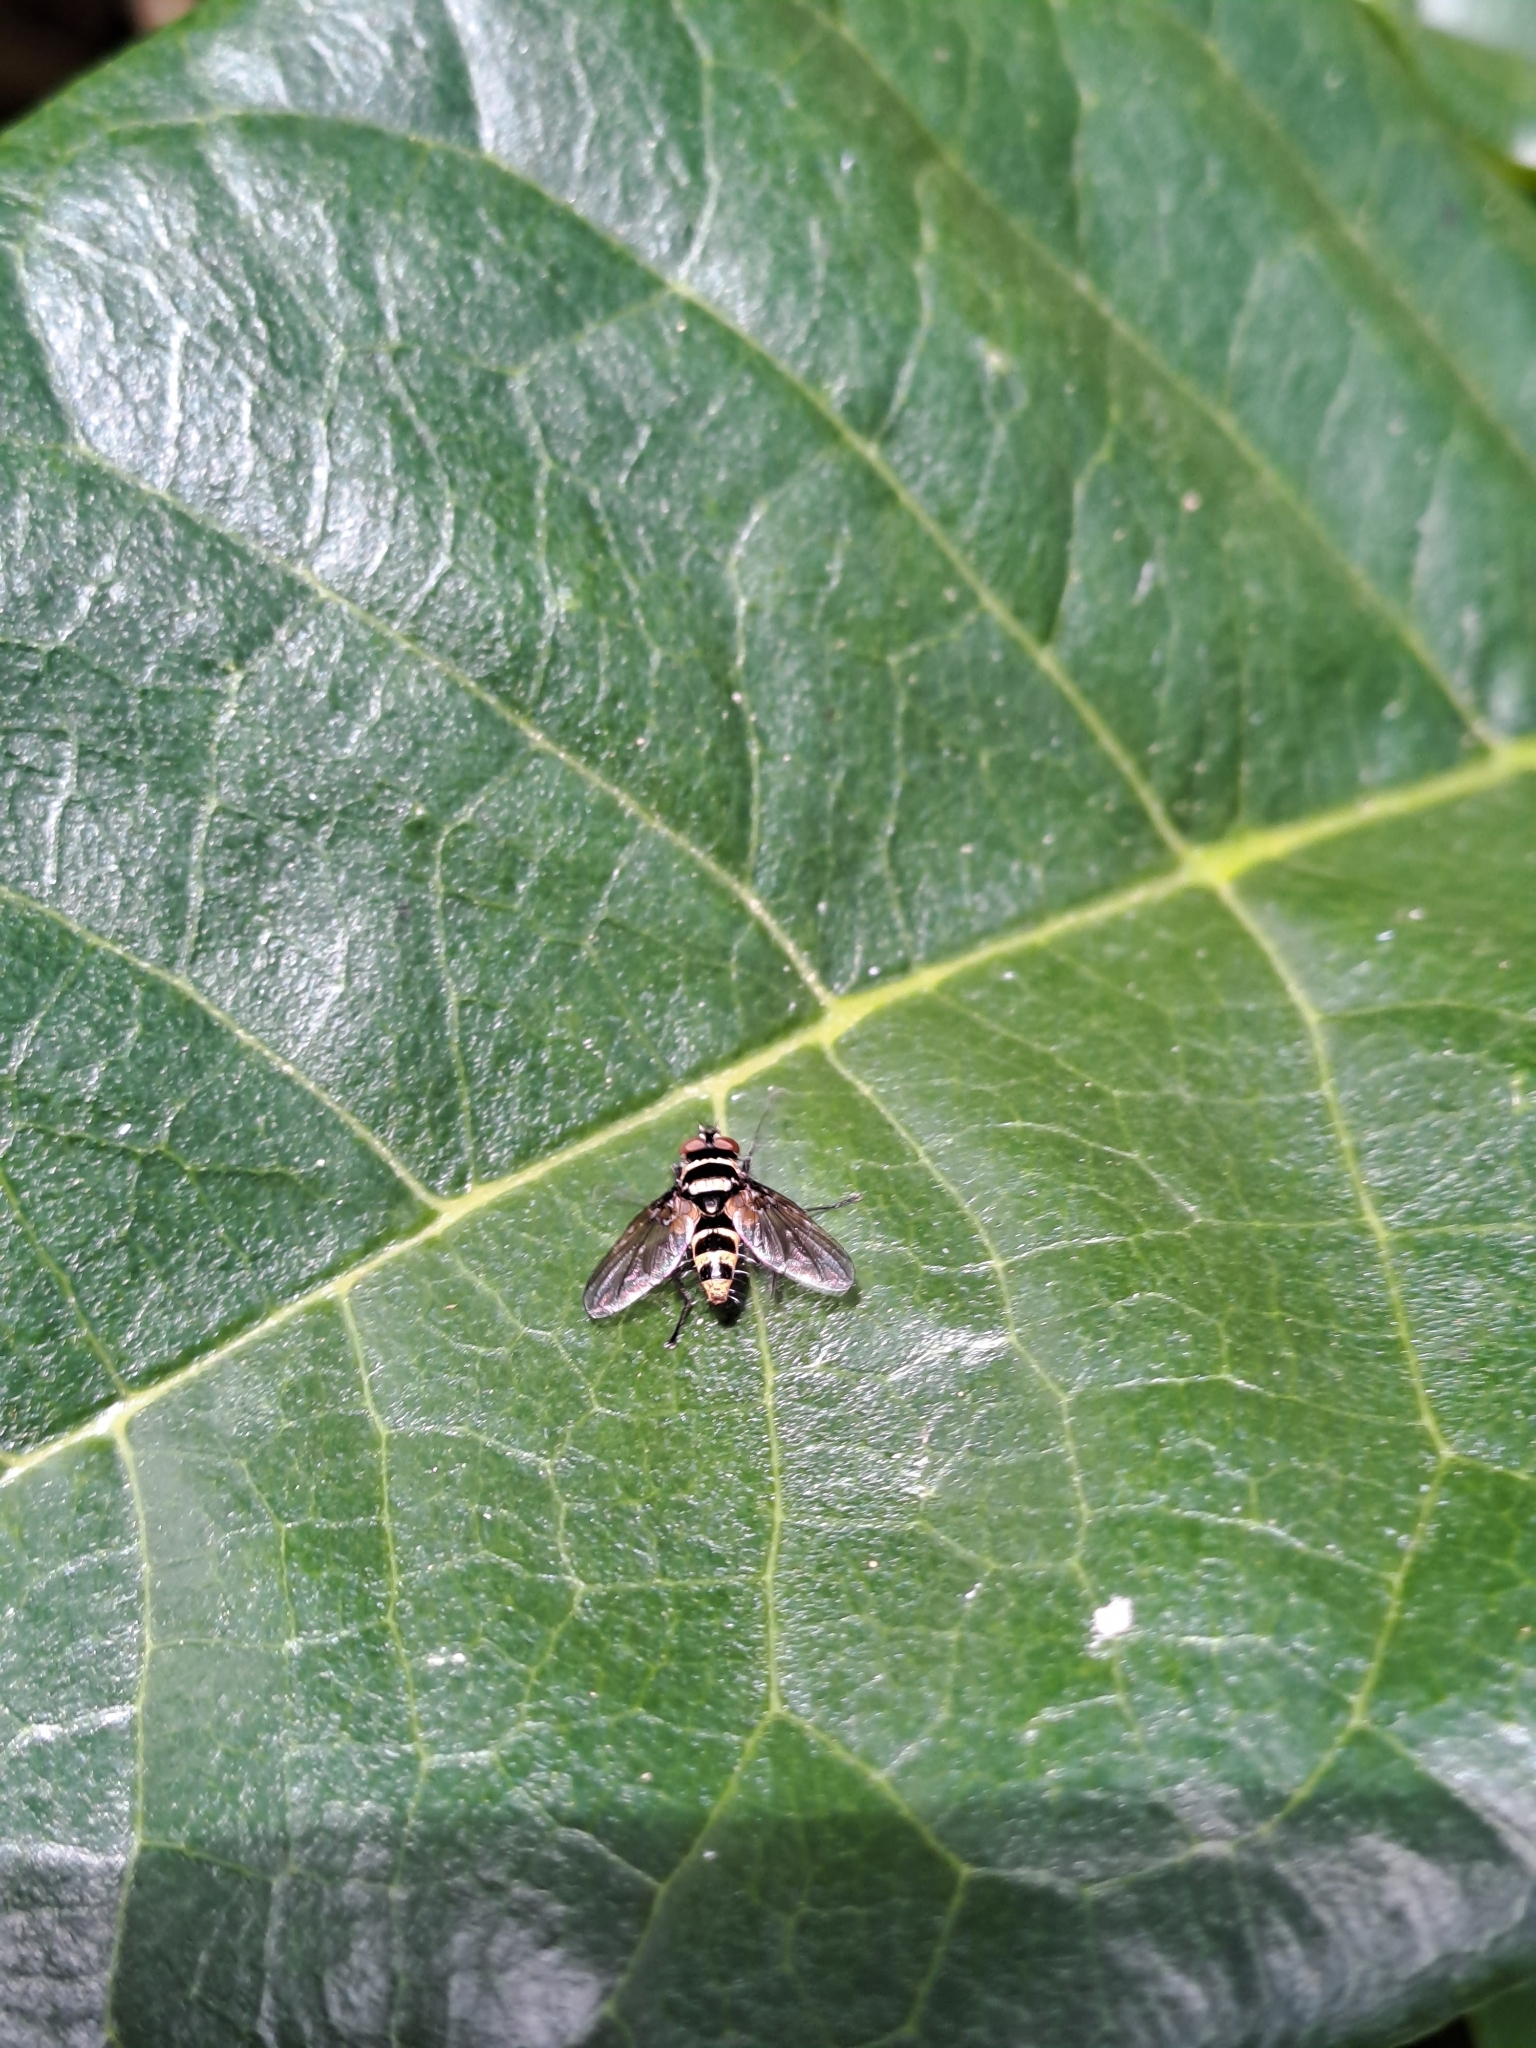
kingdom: Animalia
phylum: Arthropoda
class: Insecta
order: Diptera
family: Tachinidae
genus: Trigonospila
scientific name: Trigonospila brevifacies
